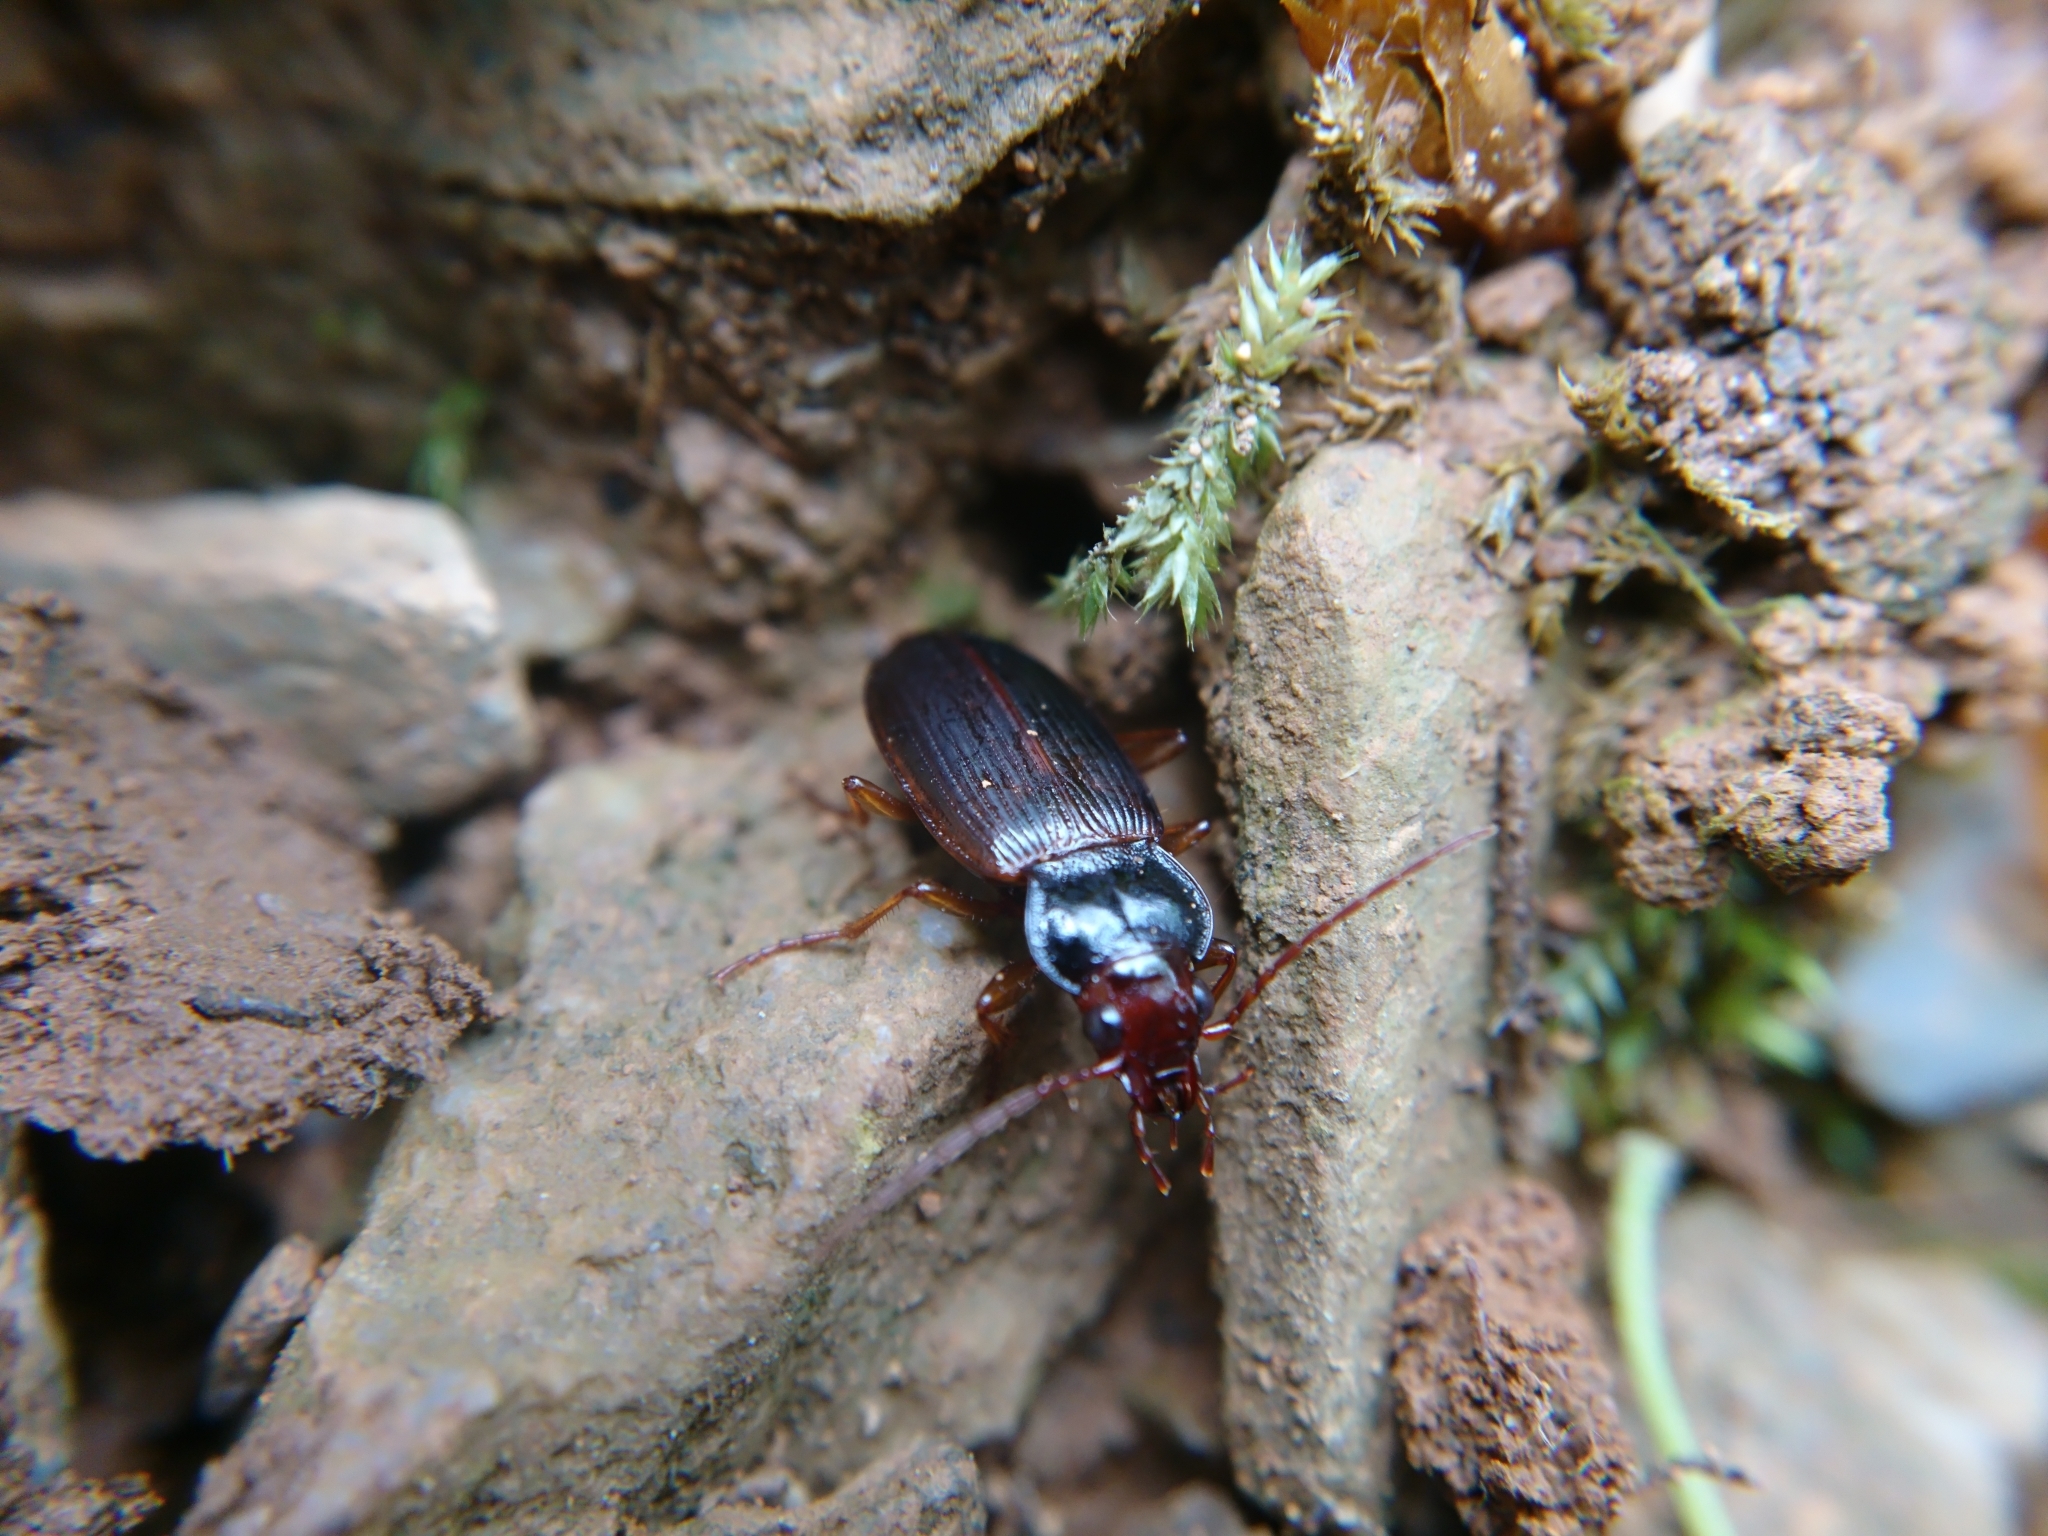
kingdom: Animalia
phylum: Arthropoda
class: Insecta
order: Coleoptera
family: Carabidae
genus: Nebria
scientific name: Nebria brevicollis
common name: Short-necked gazelle beetle
